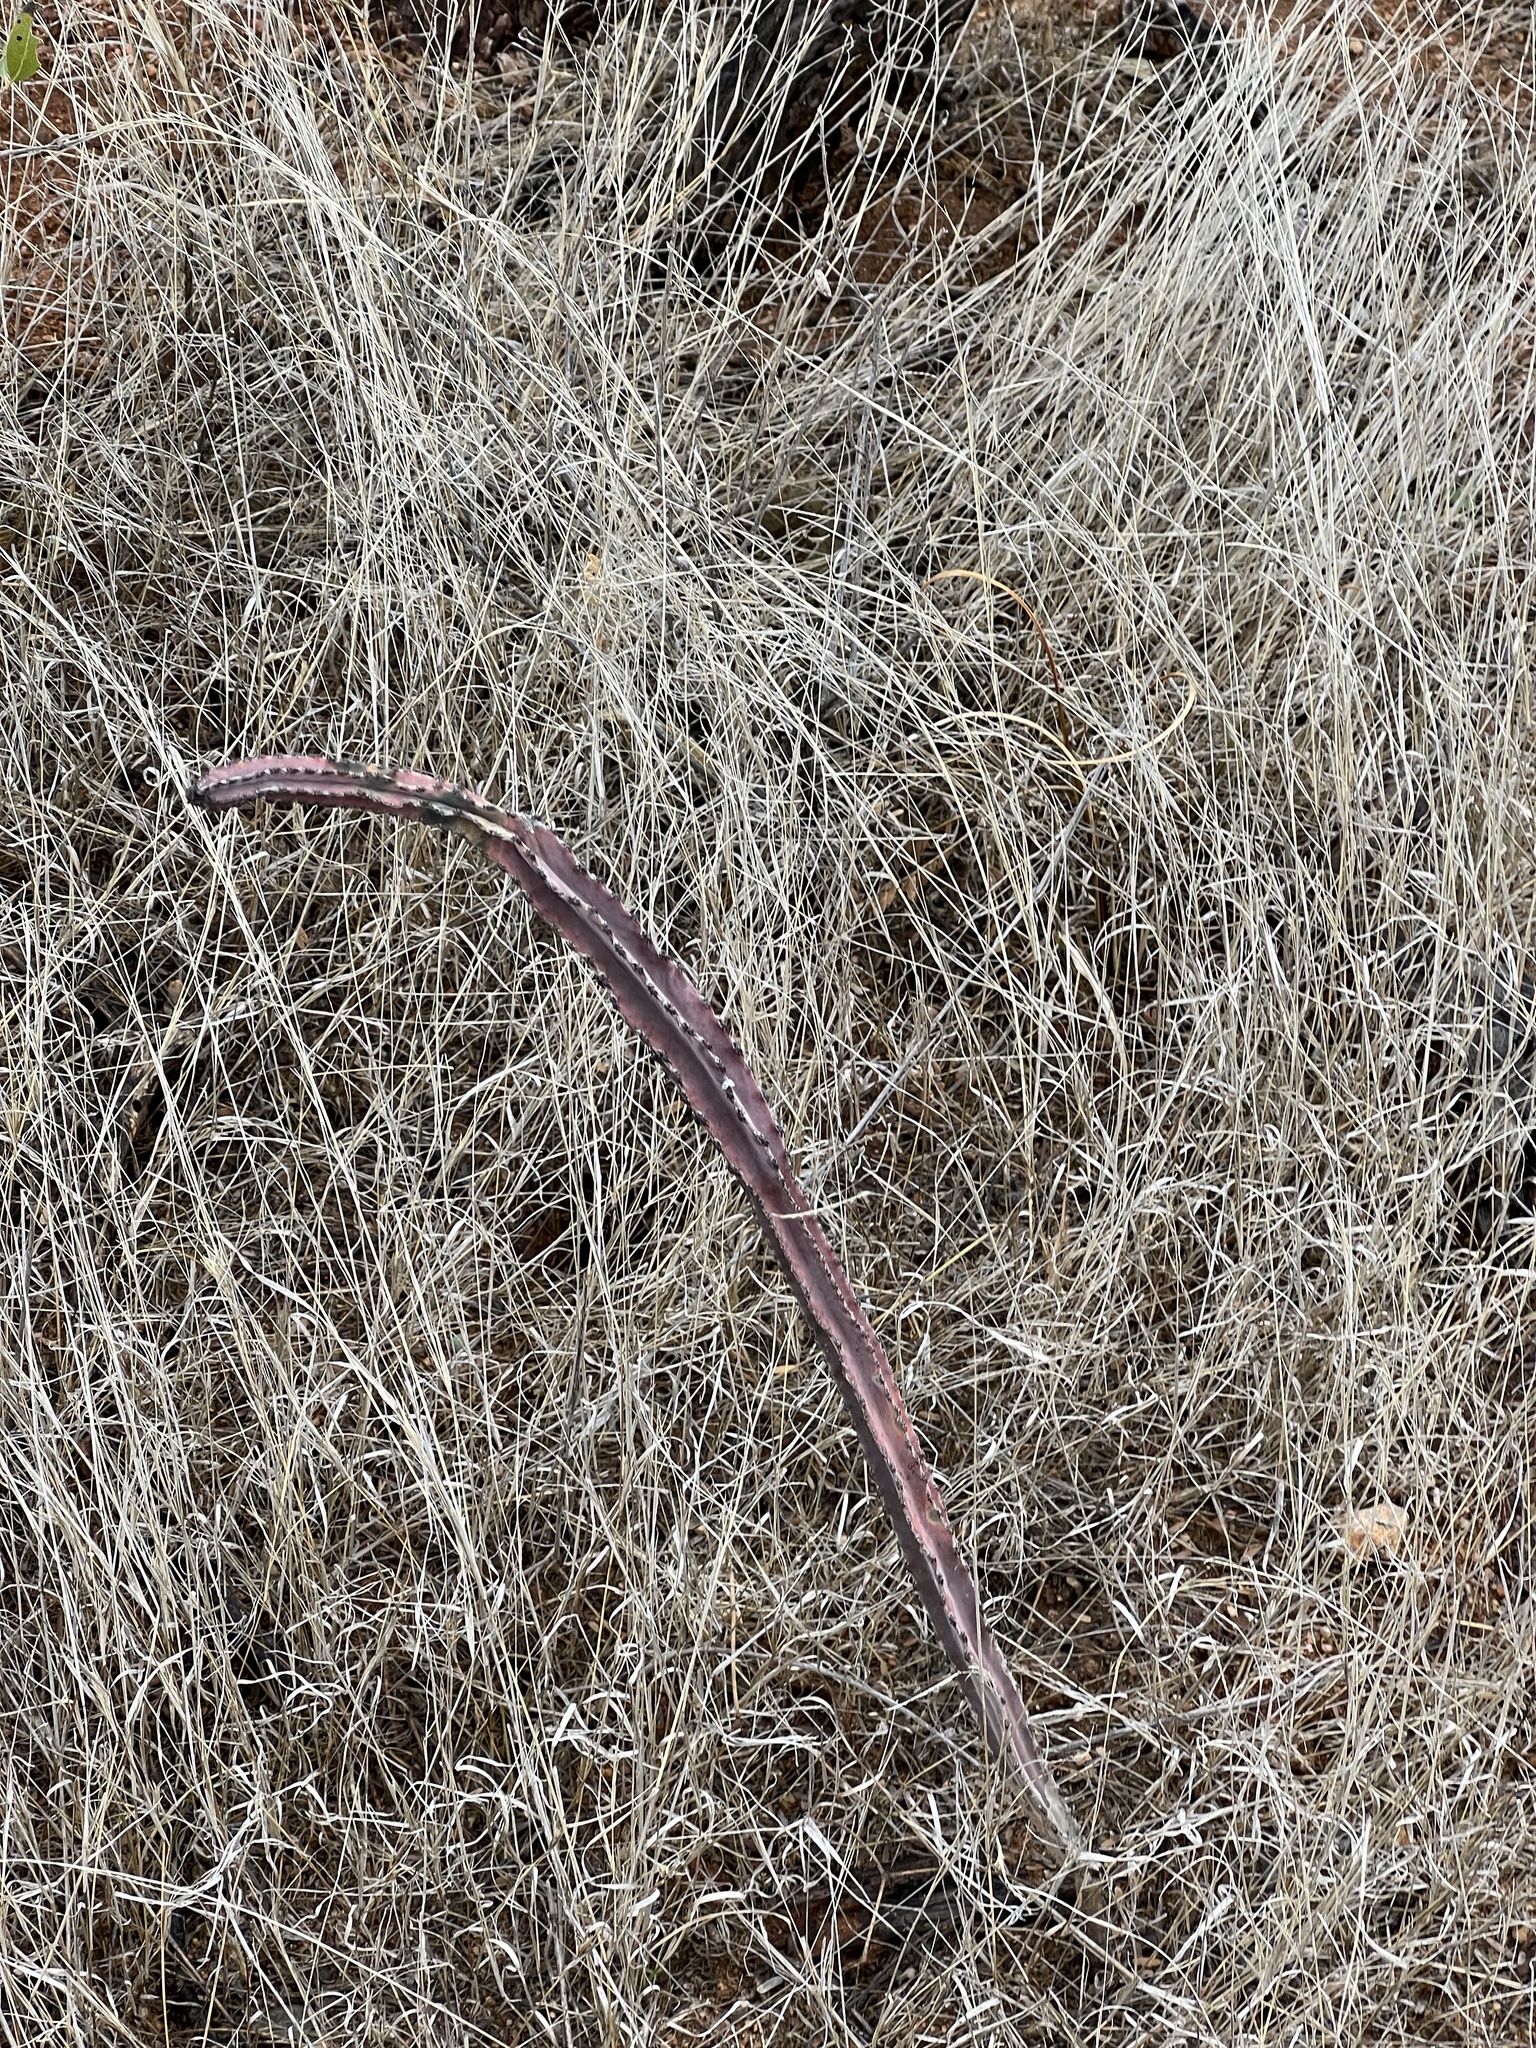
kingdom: Plantae
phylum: Tracheophyta
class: Magnoliopsida
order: Caryophyllales
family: Cactaceae
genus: Peniocereus
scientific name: Peniocereus greggii
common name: Desert night-blooming cereus
